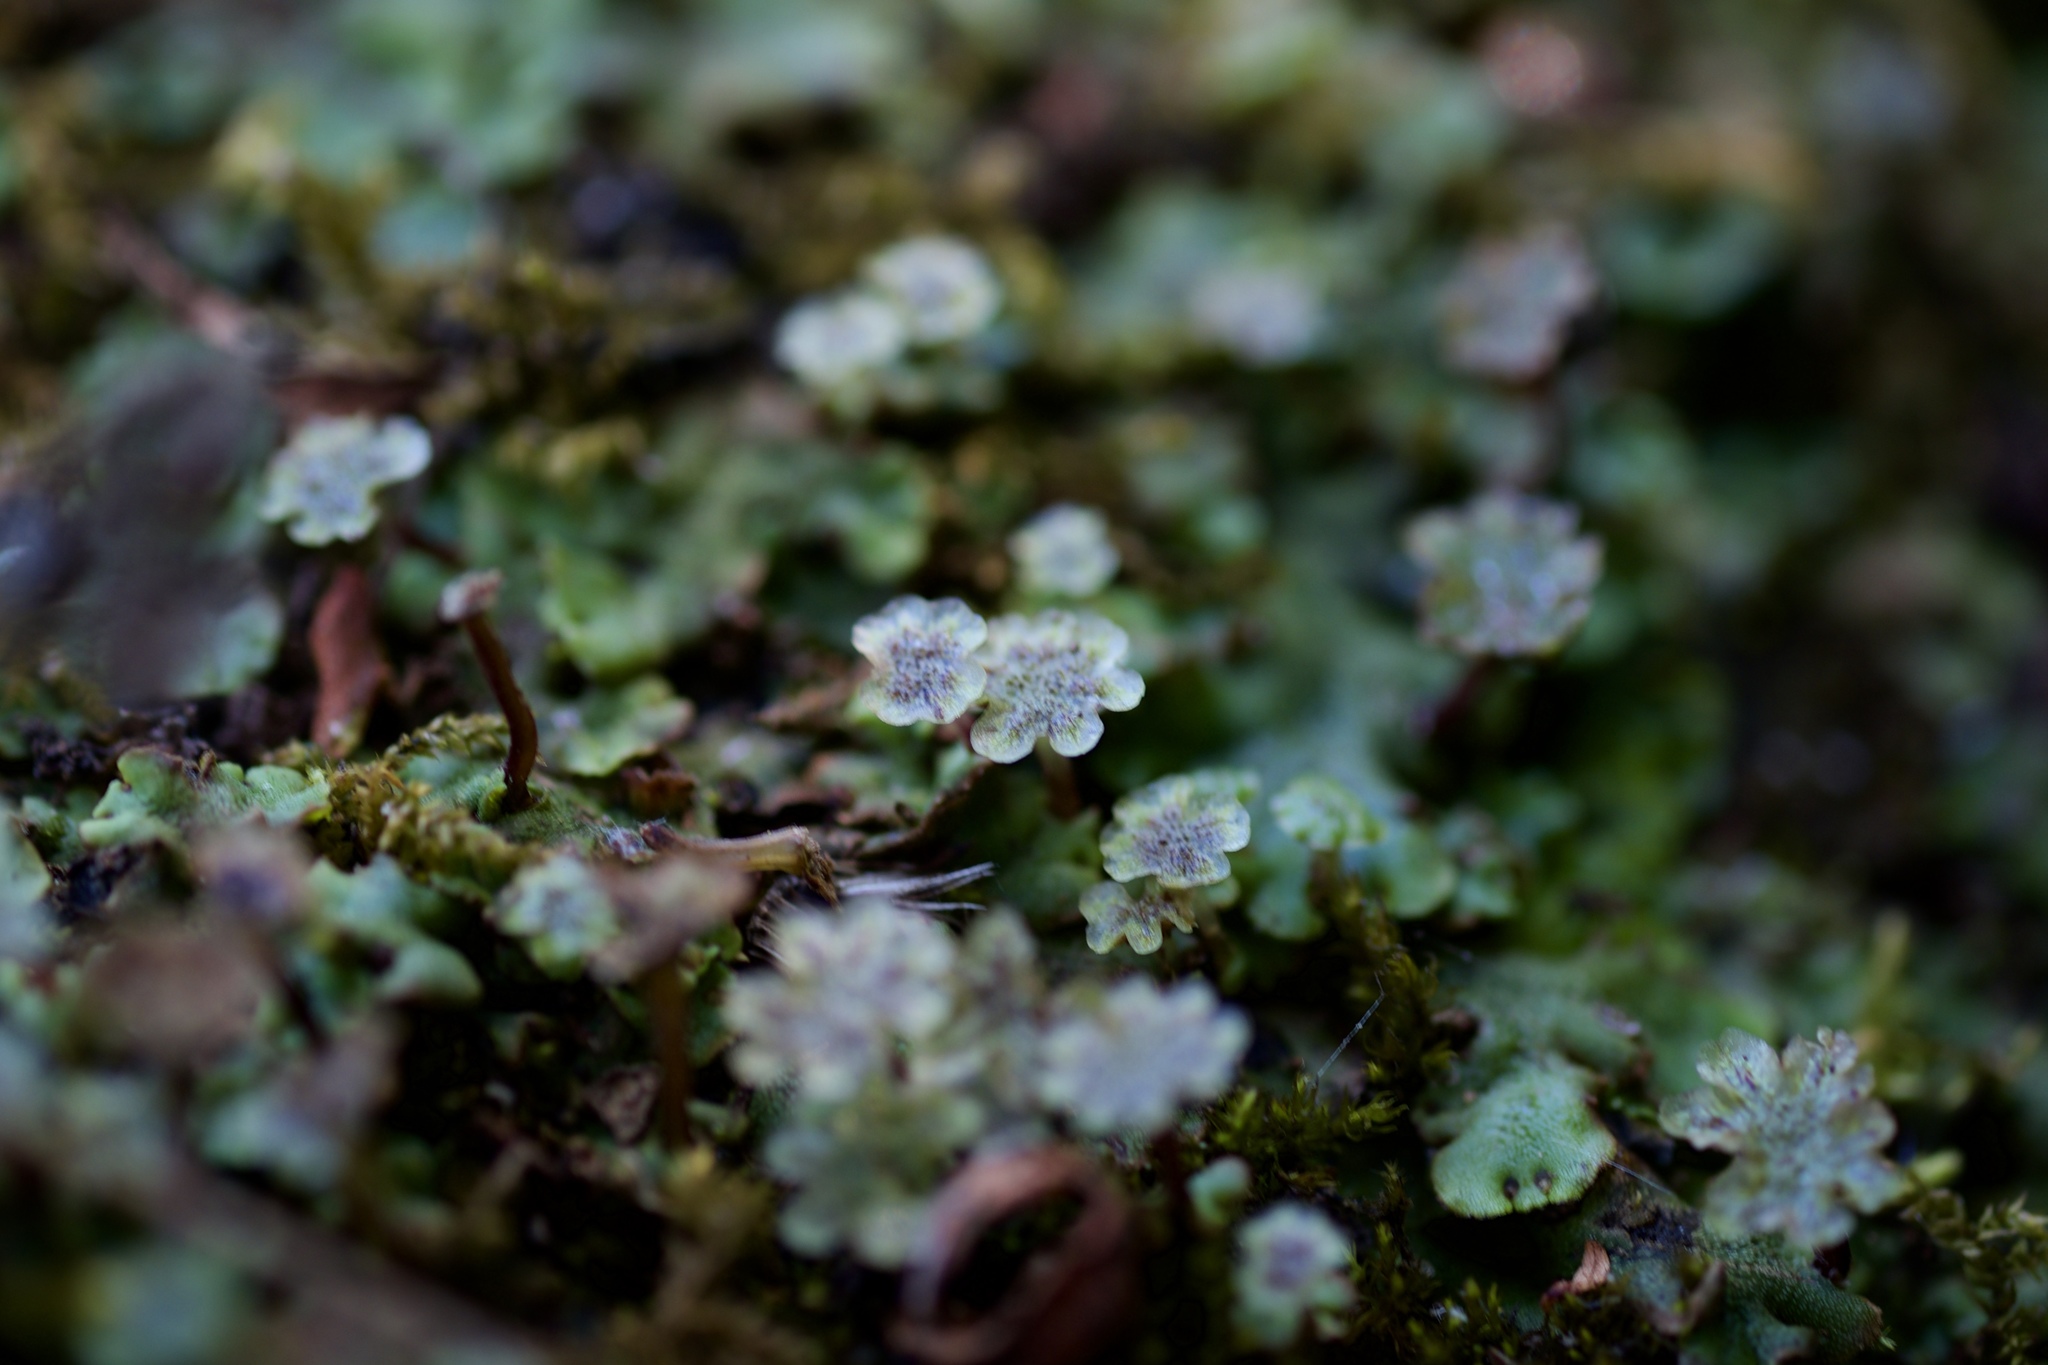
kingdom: Plantae
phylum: Marchantiophyta
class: Marchantiopsida
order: Marchantiales
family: Marchantiaceae
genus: Marchantia
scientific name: Marchantia polymorpha
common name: Common liverwort
